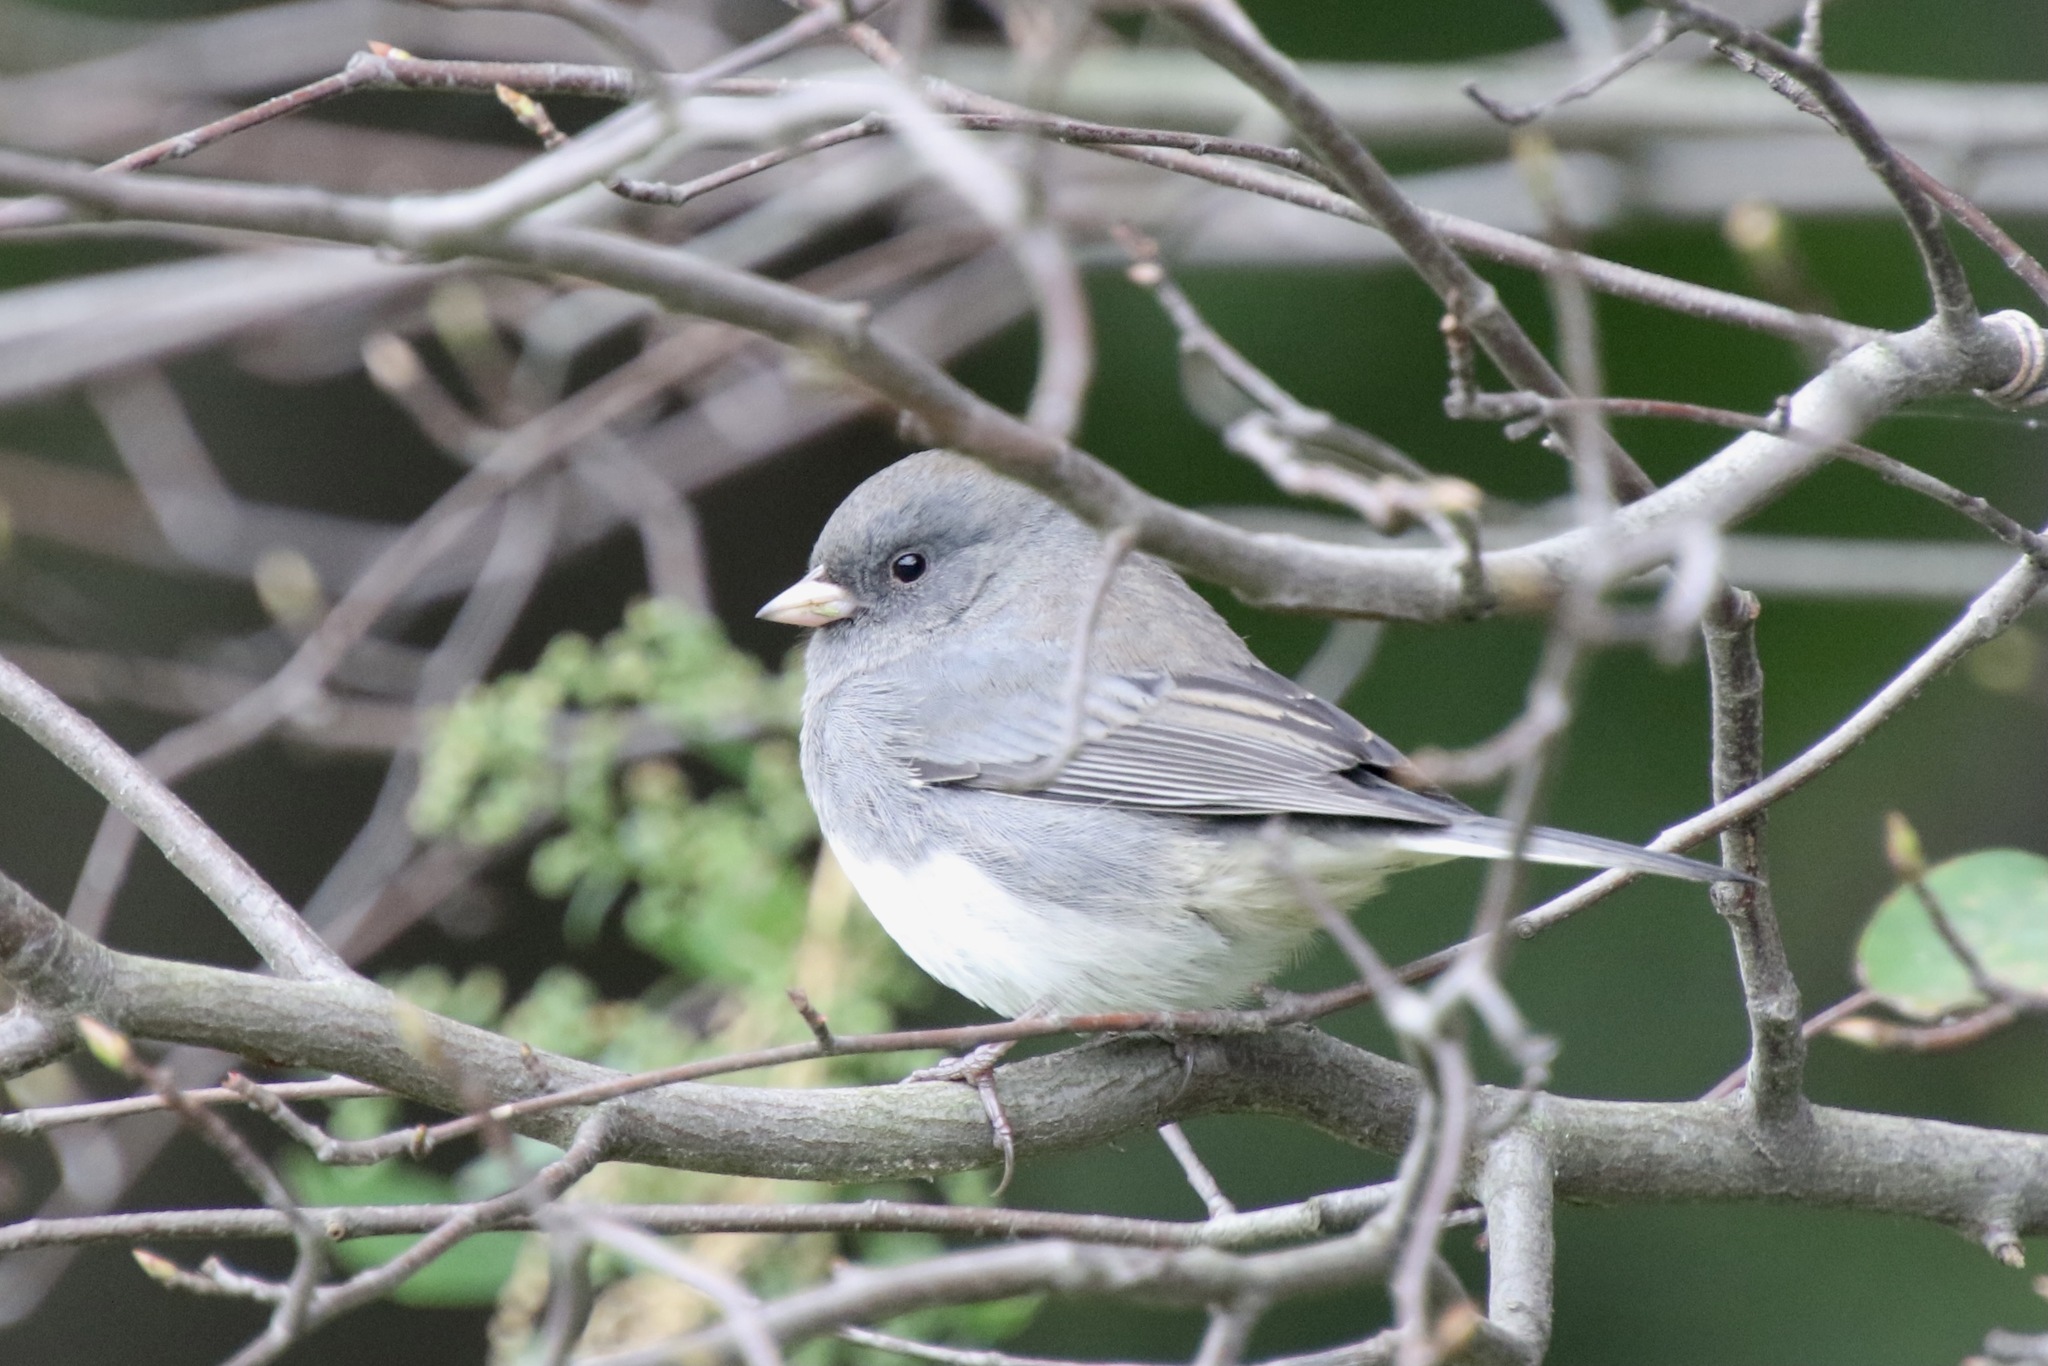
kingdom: Animalia
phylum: Chordata
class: Aves
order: Passeriformes
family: Passerellidae
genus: Junco
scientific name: Junco hyemalis
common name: Dark-eyed junco
